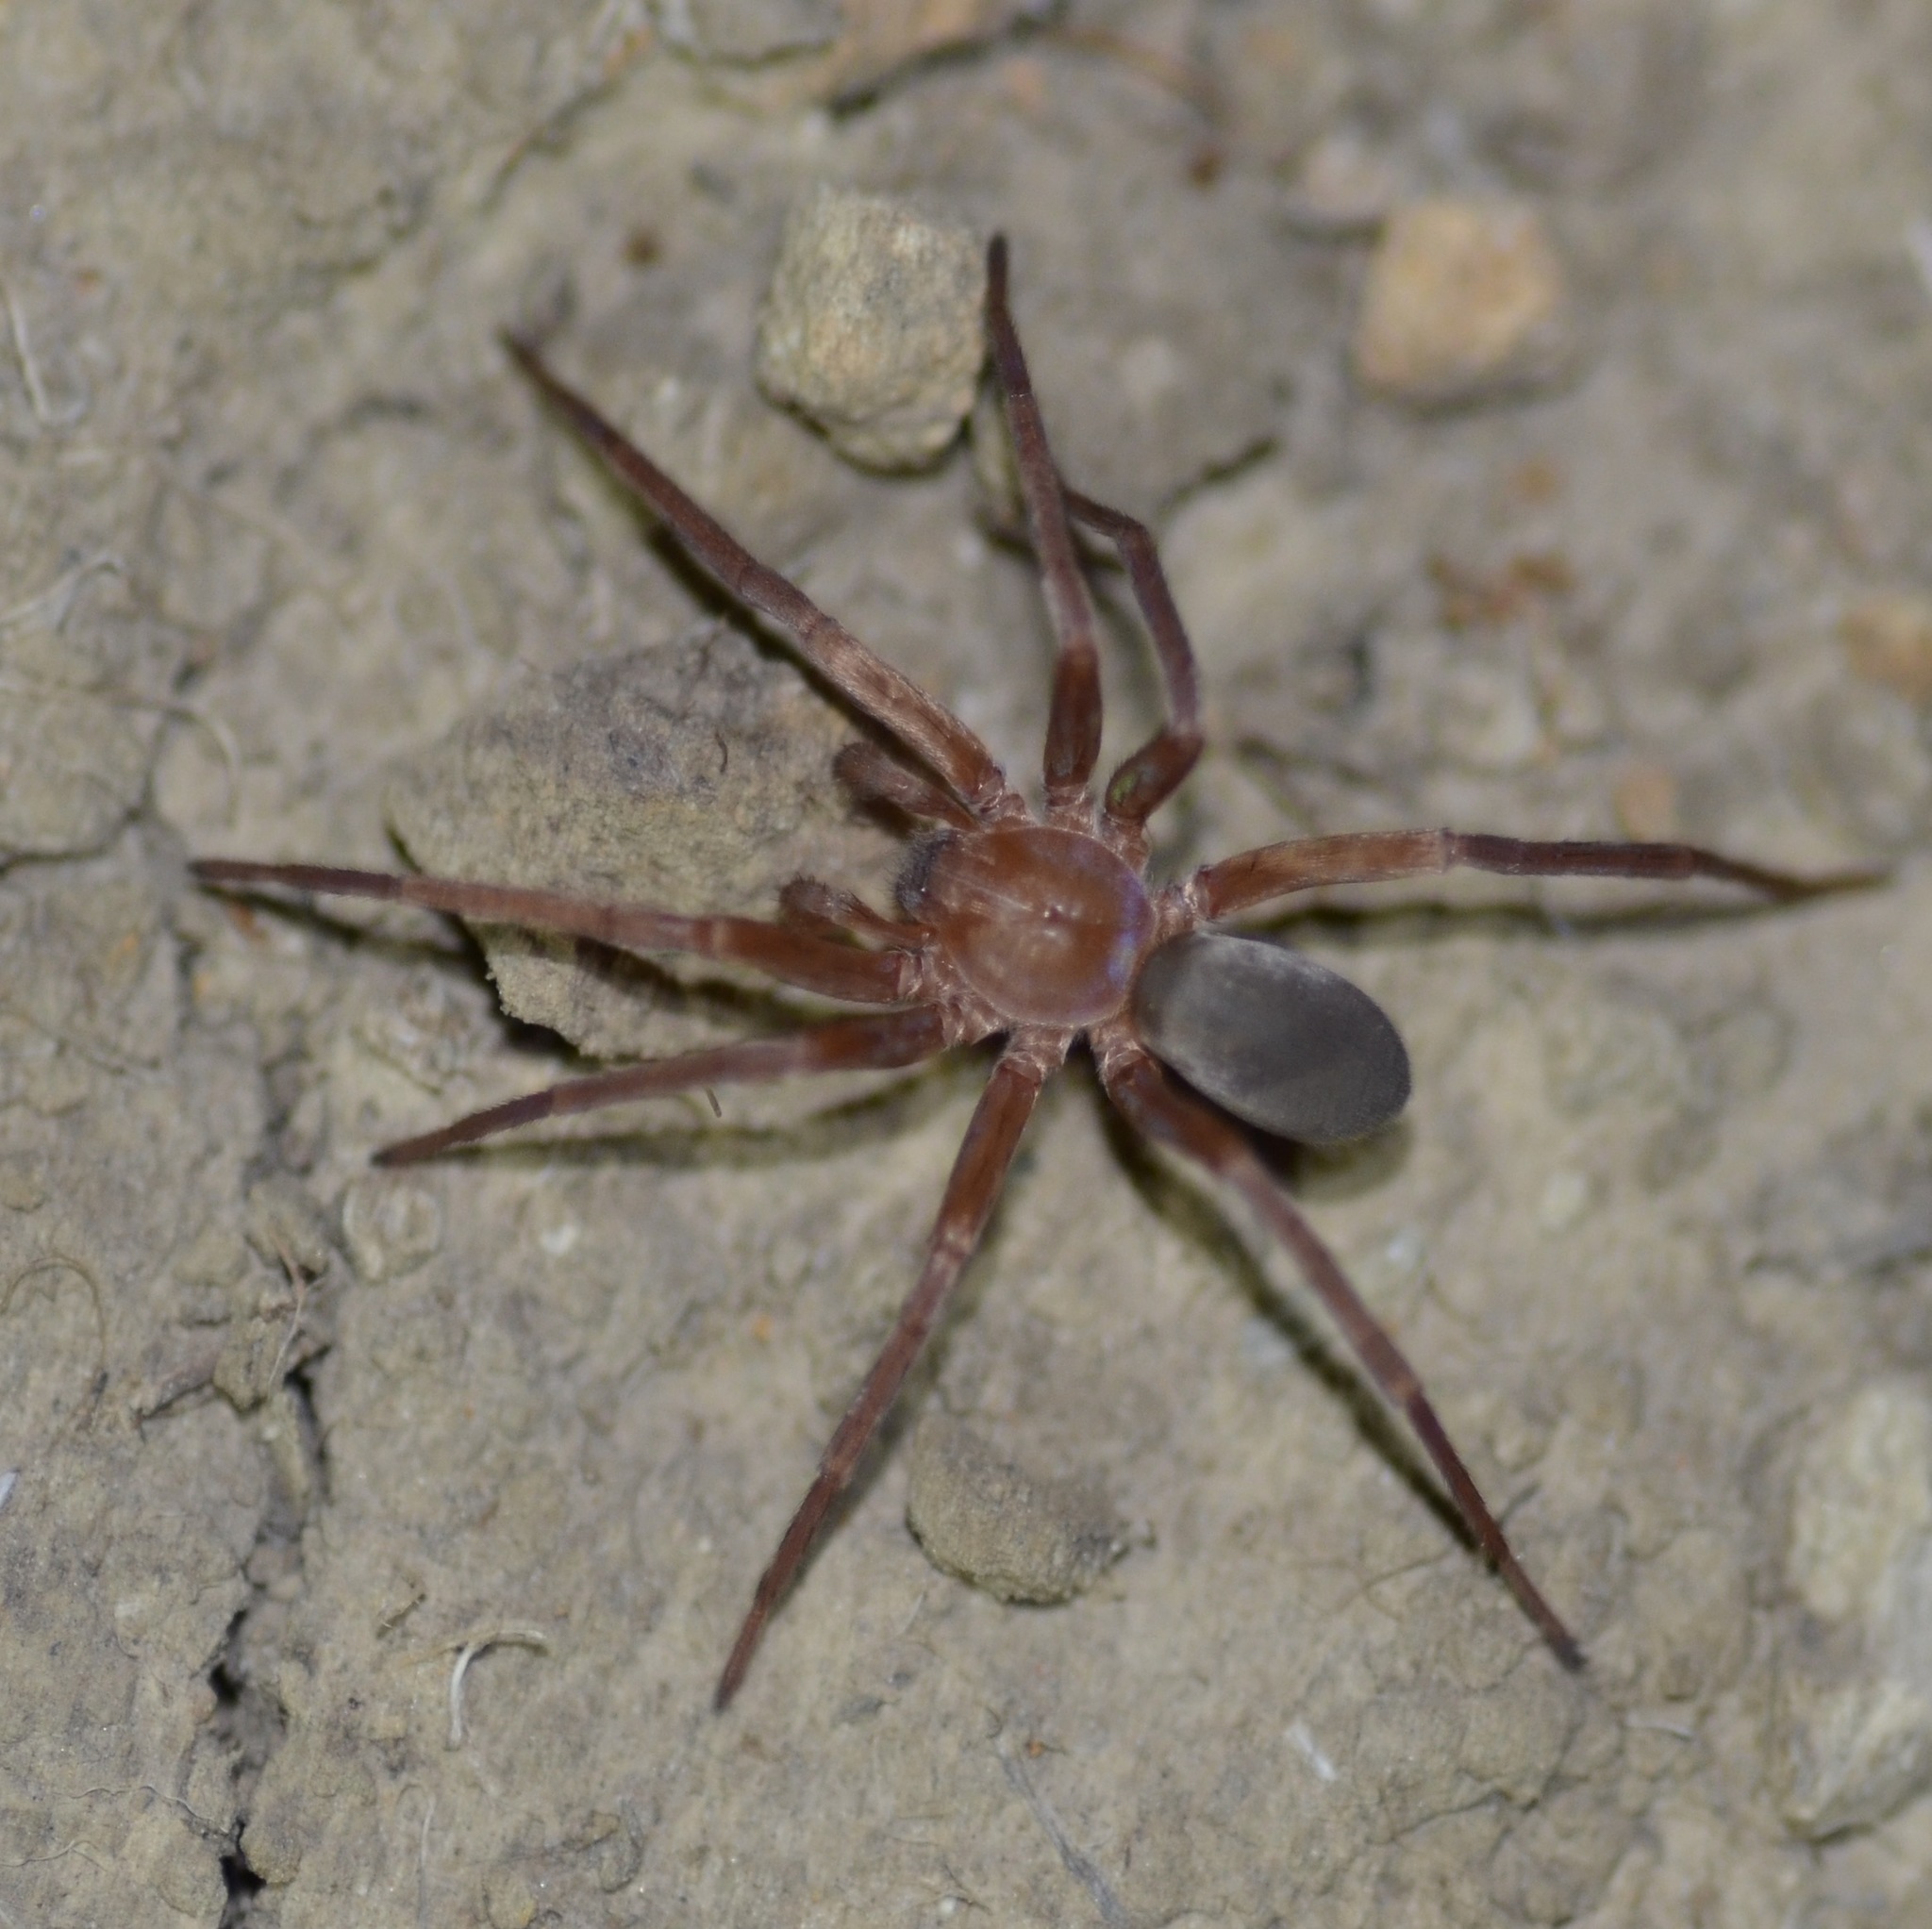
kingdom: Animalia
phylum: Arthropoda
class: Arachnida
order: Araneae
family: Zoropsidae
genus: Titiotus
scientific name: Titiotus
